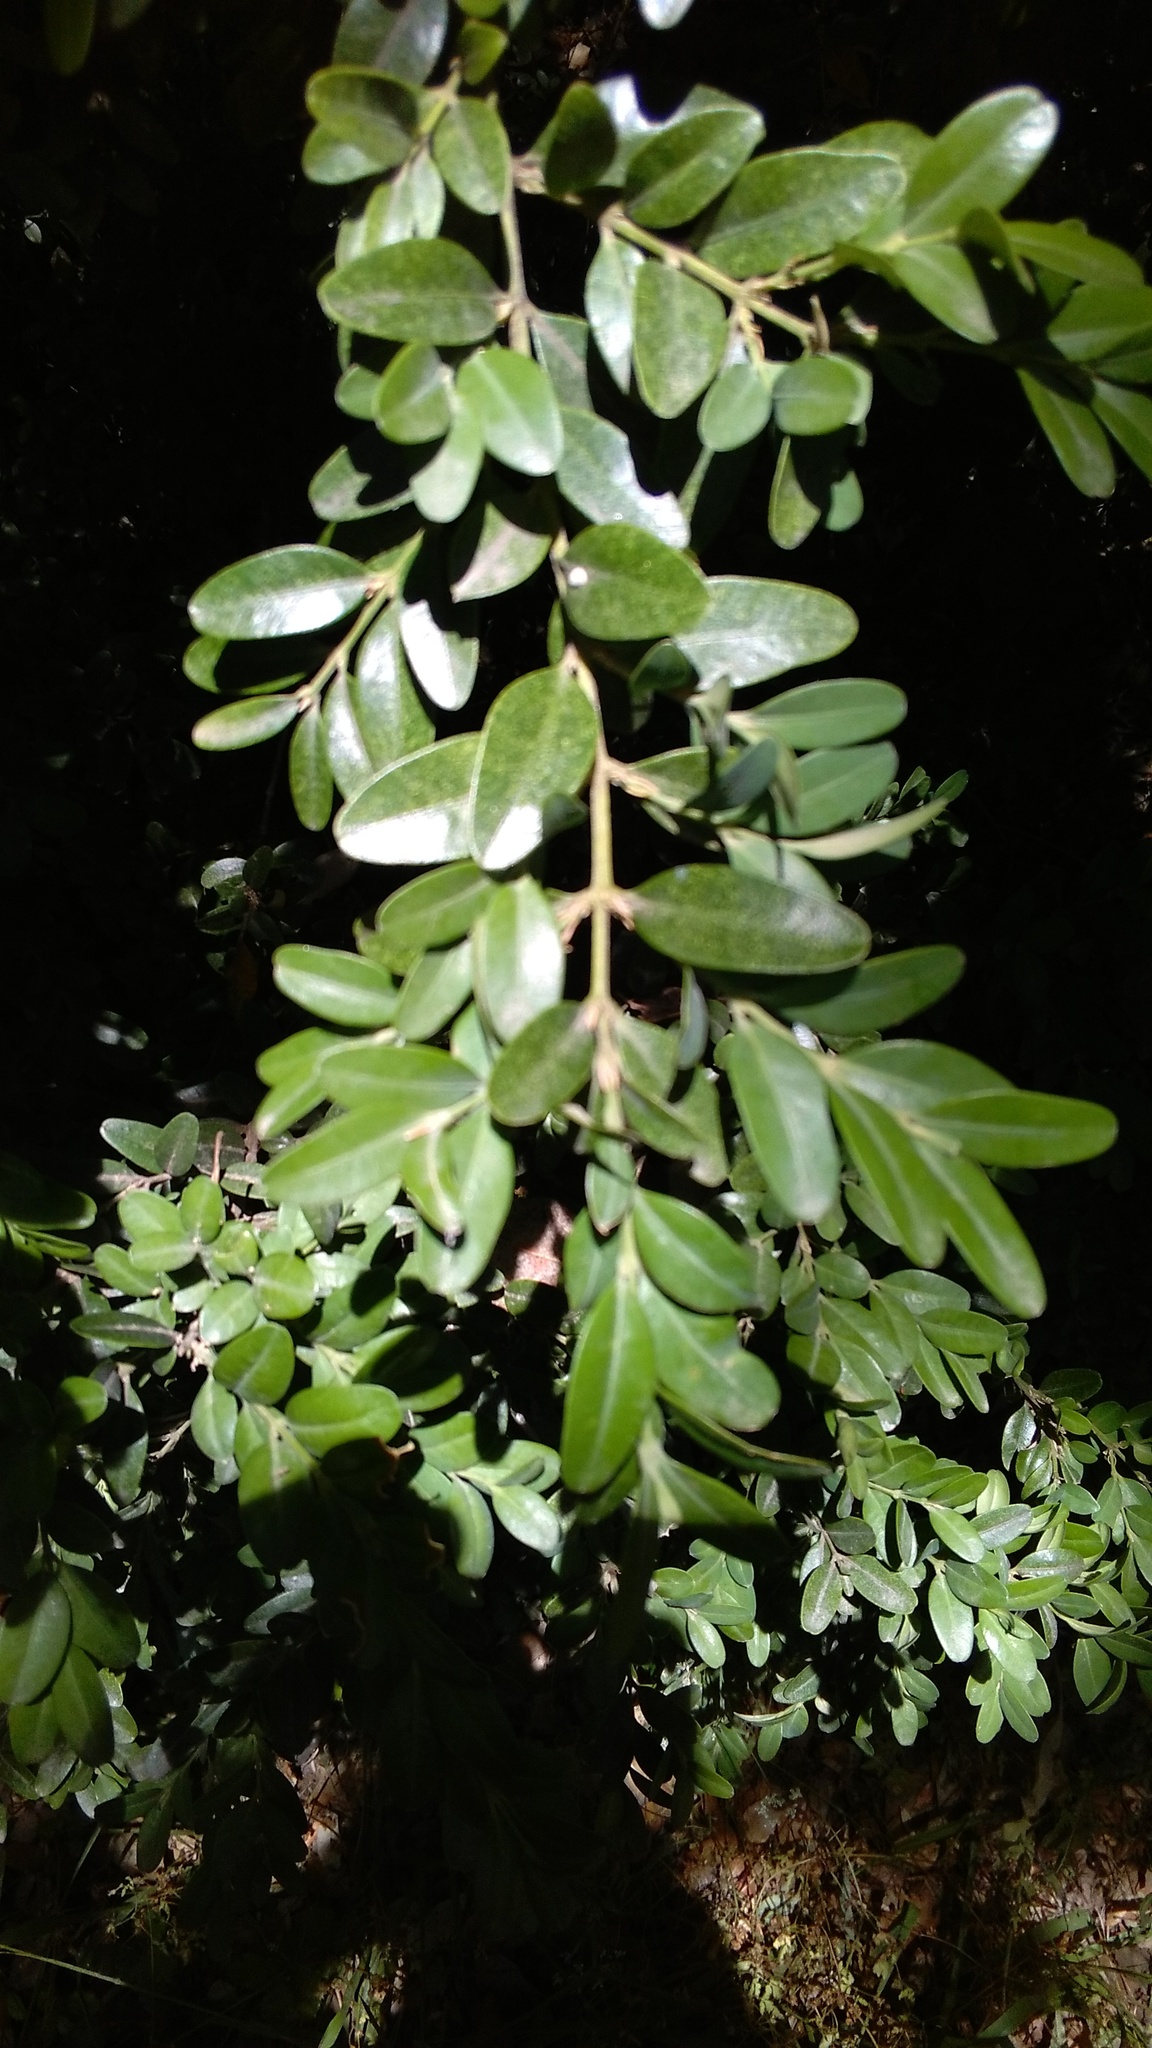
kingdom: Plantae
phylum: Tracheophyta
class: Magnoliopsida
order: Buxales
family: Buxaceae
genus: Buxus
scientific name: Buxus sempervirens
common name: Box
